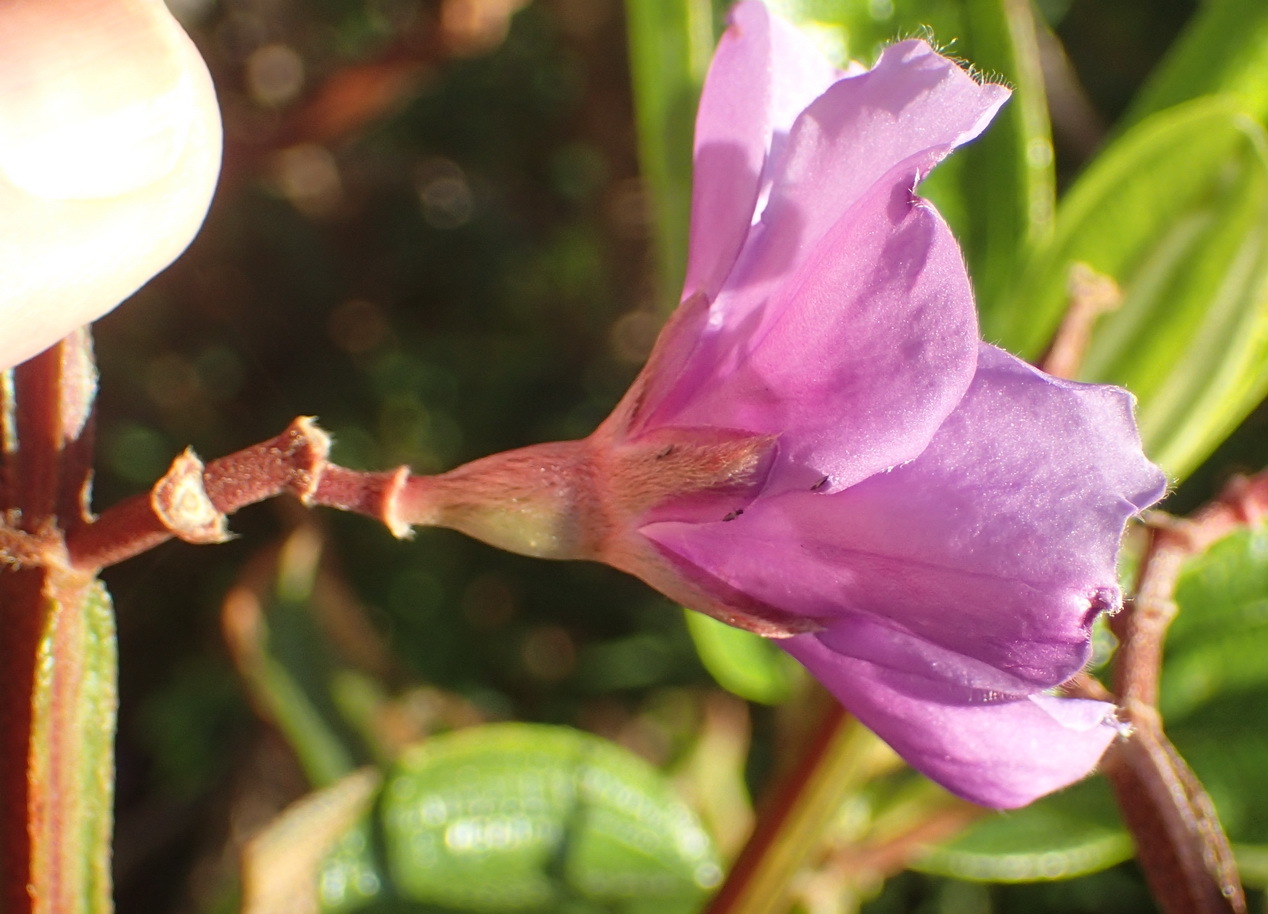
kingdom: Plantae
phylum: Tracheophyta
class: Magnoliopsida
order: Myrtales
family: Melastomataceae
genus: Pleroma
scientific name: Pleroma semidecandrum
